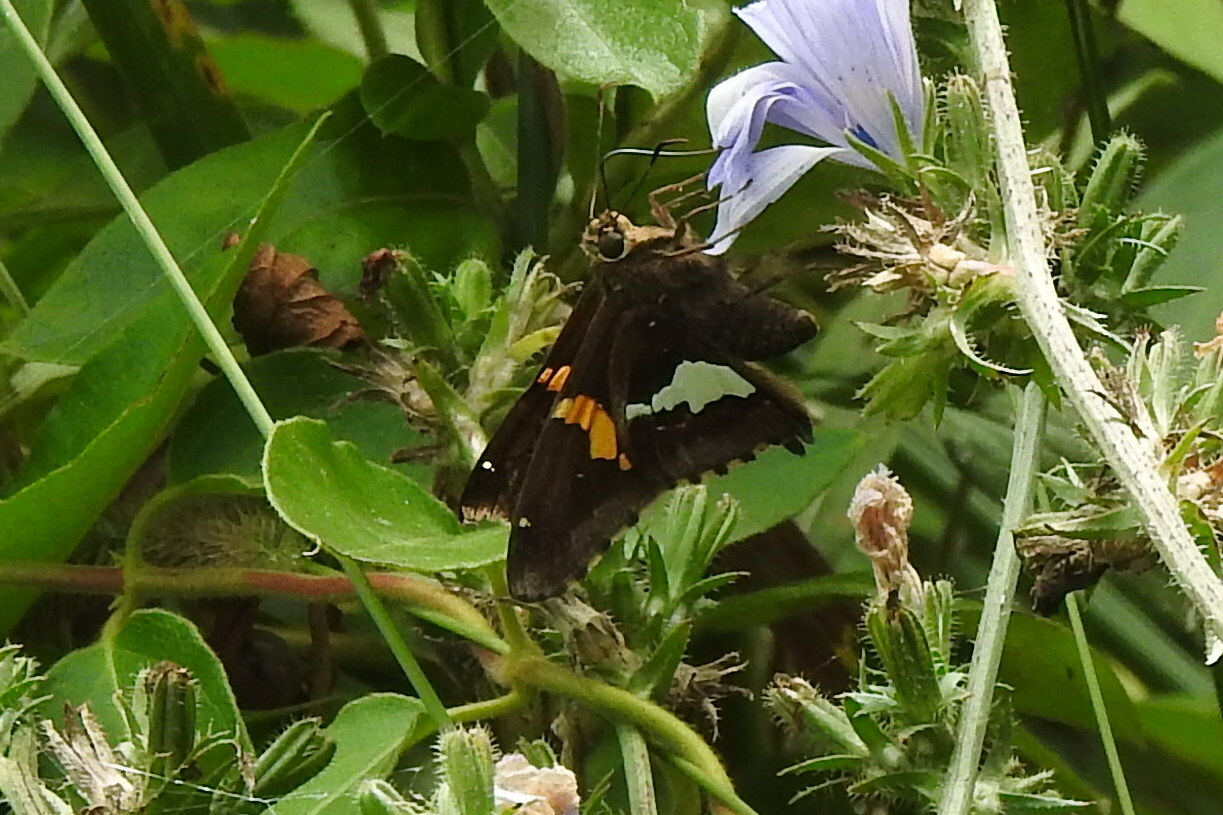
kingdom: Animalia
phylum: Arthropoda
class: Insecta
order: Lepidoptera
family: Hesperiidae
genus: Epargyreus
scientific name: Epargyreus clarus
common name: Silver-spotted skipper
